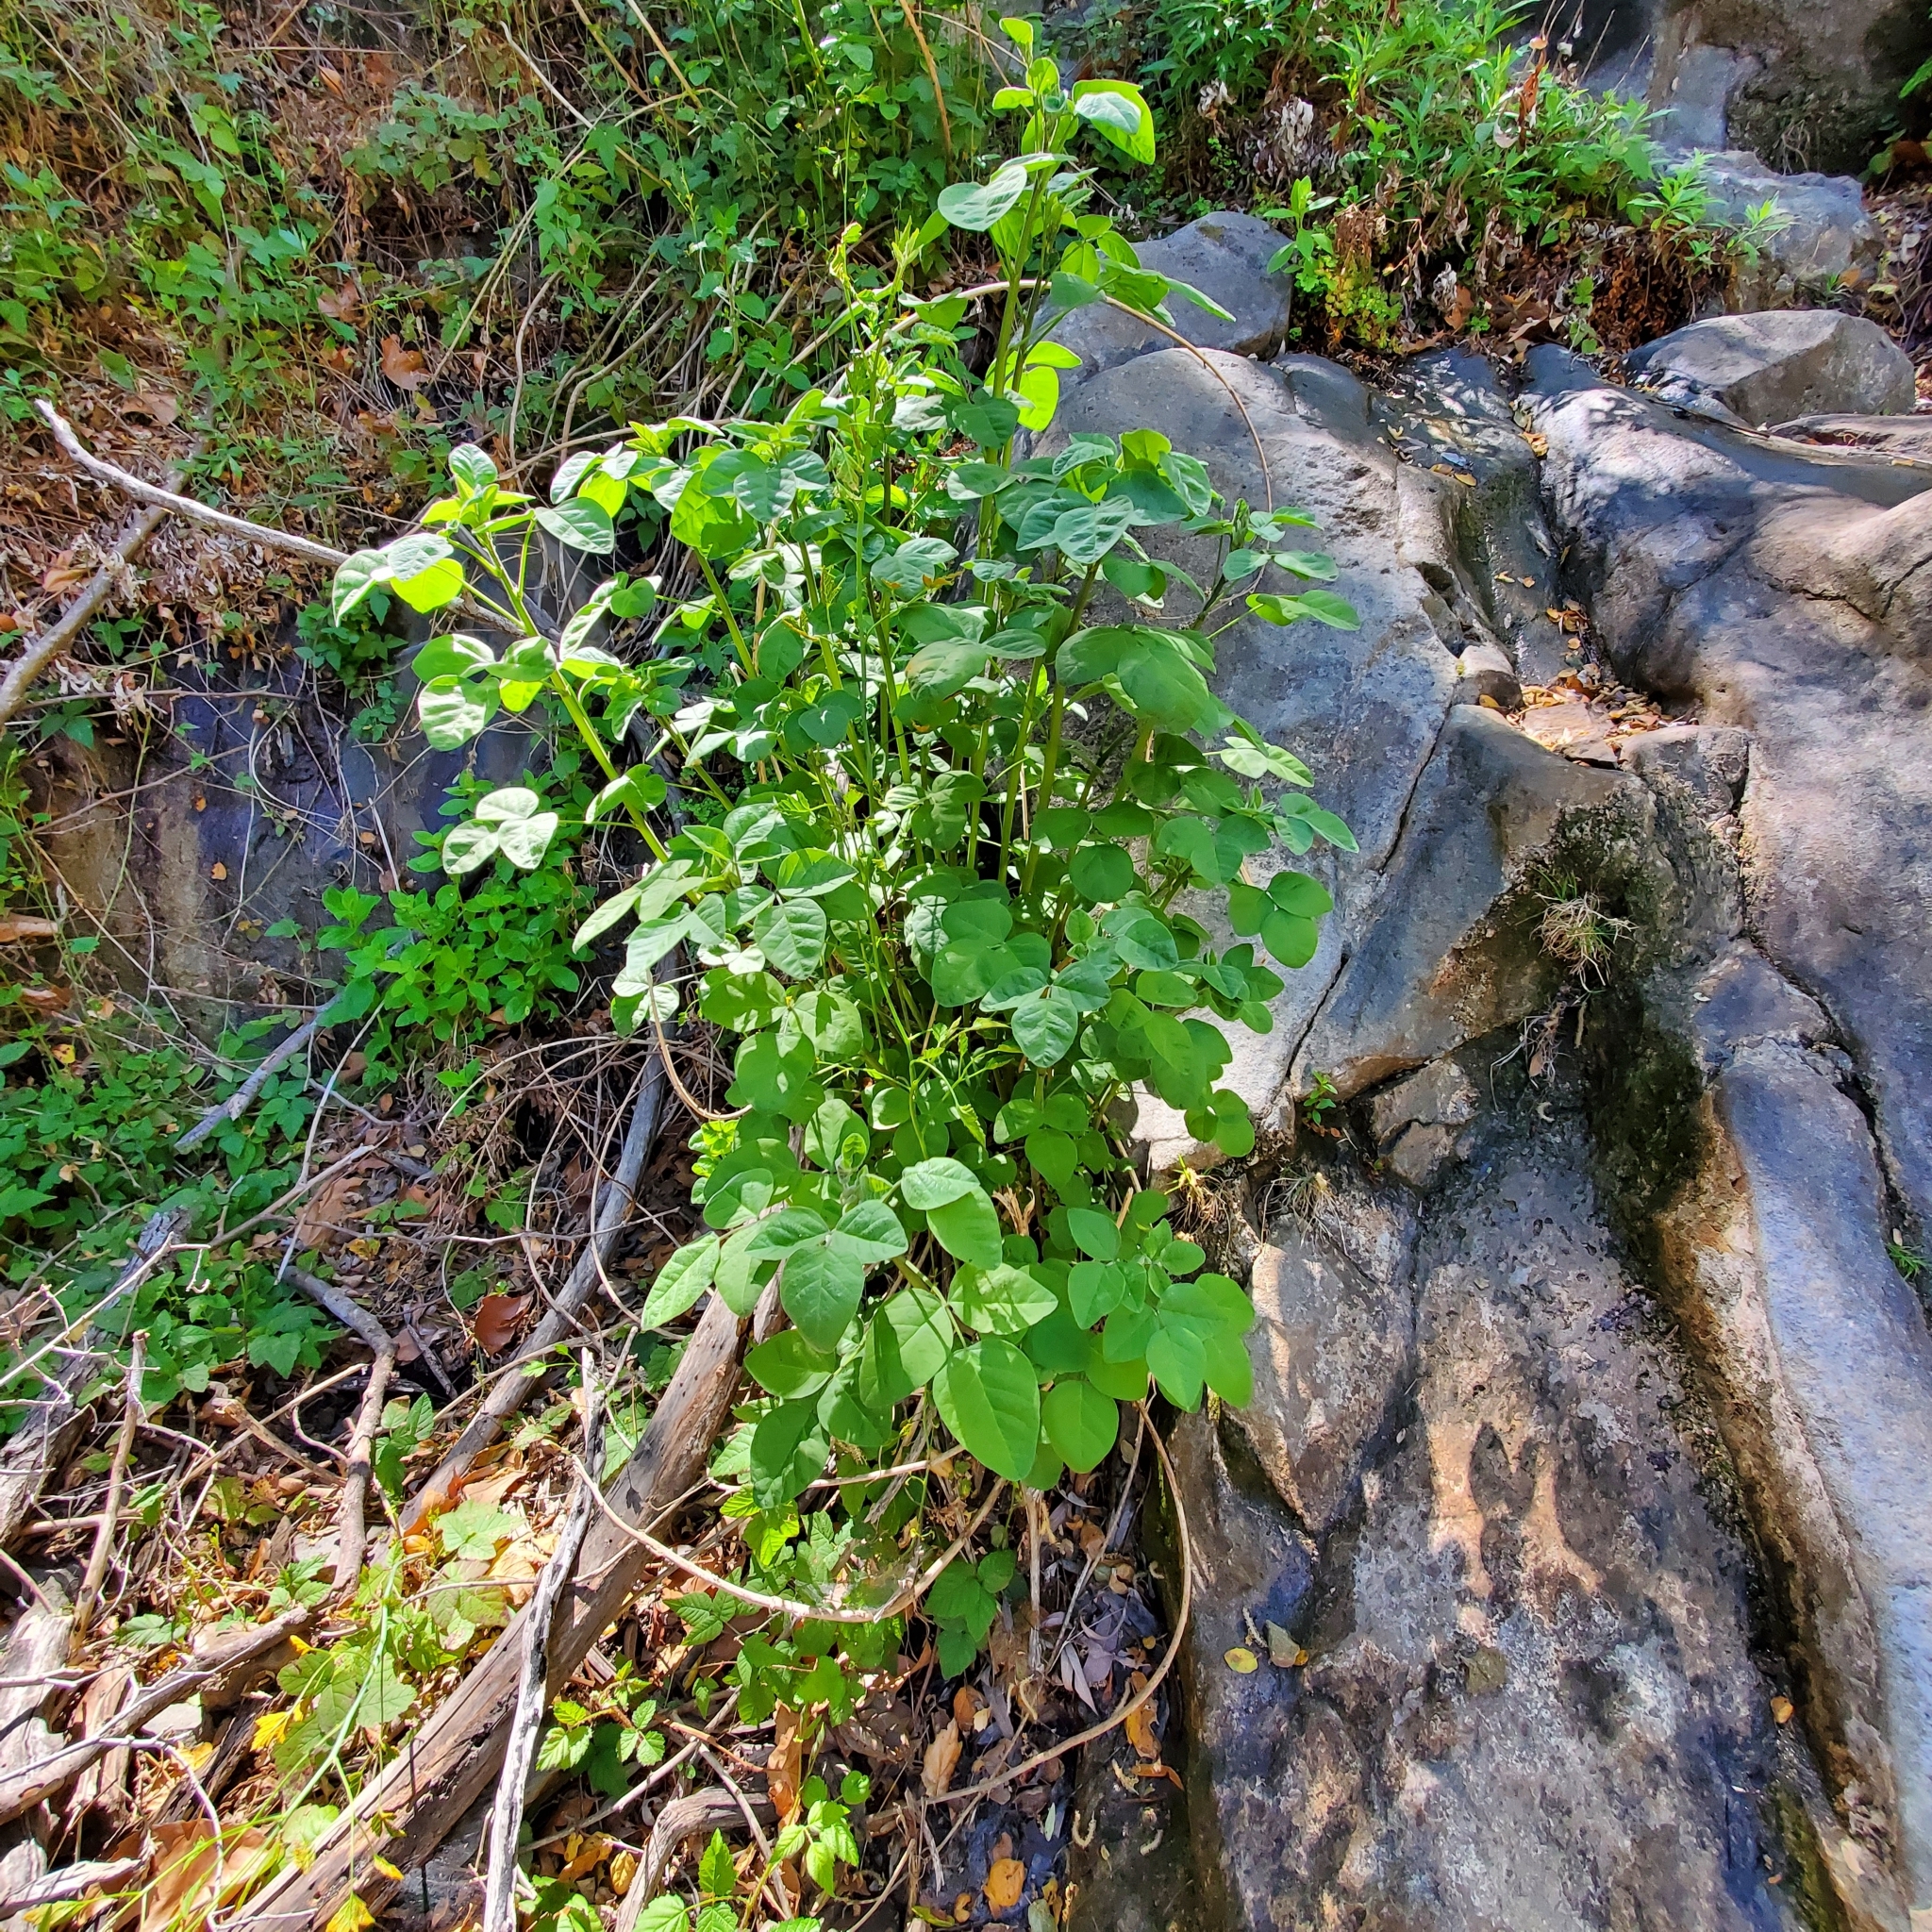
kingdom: Plantae
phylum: Tracheophyta
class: Magnoliopsida
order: Fabales
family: Fabaceae
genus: Rupertia
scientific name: Rupertia physodes
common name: California-tea
